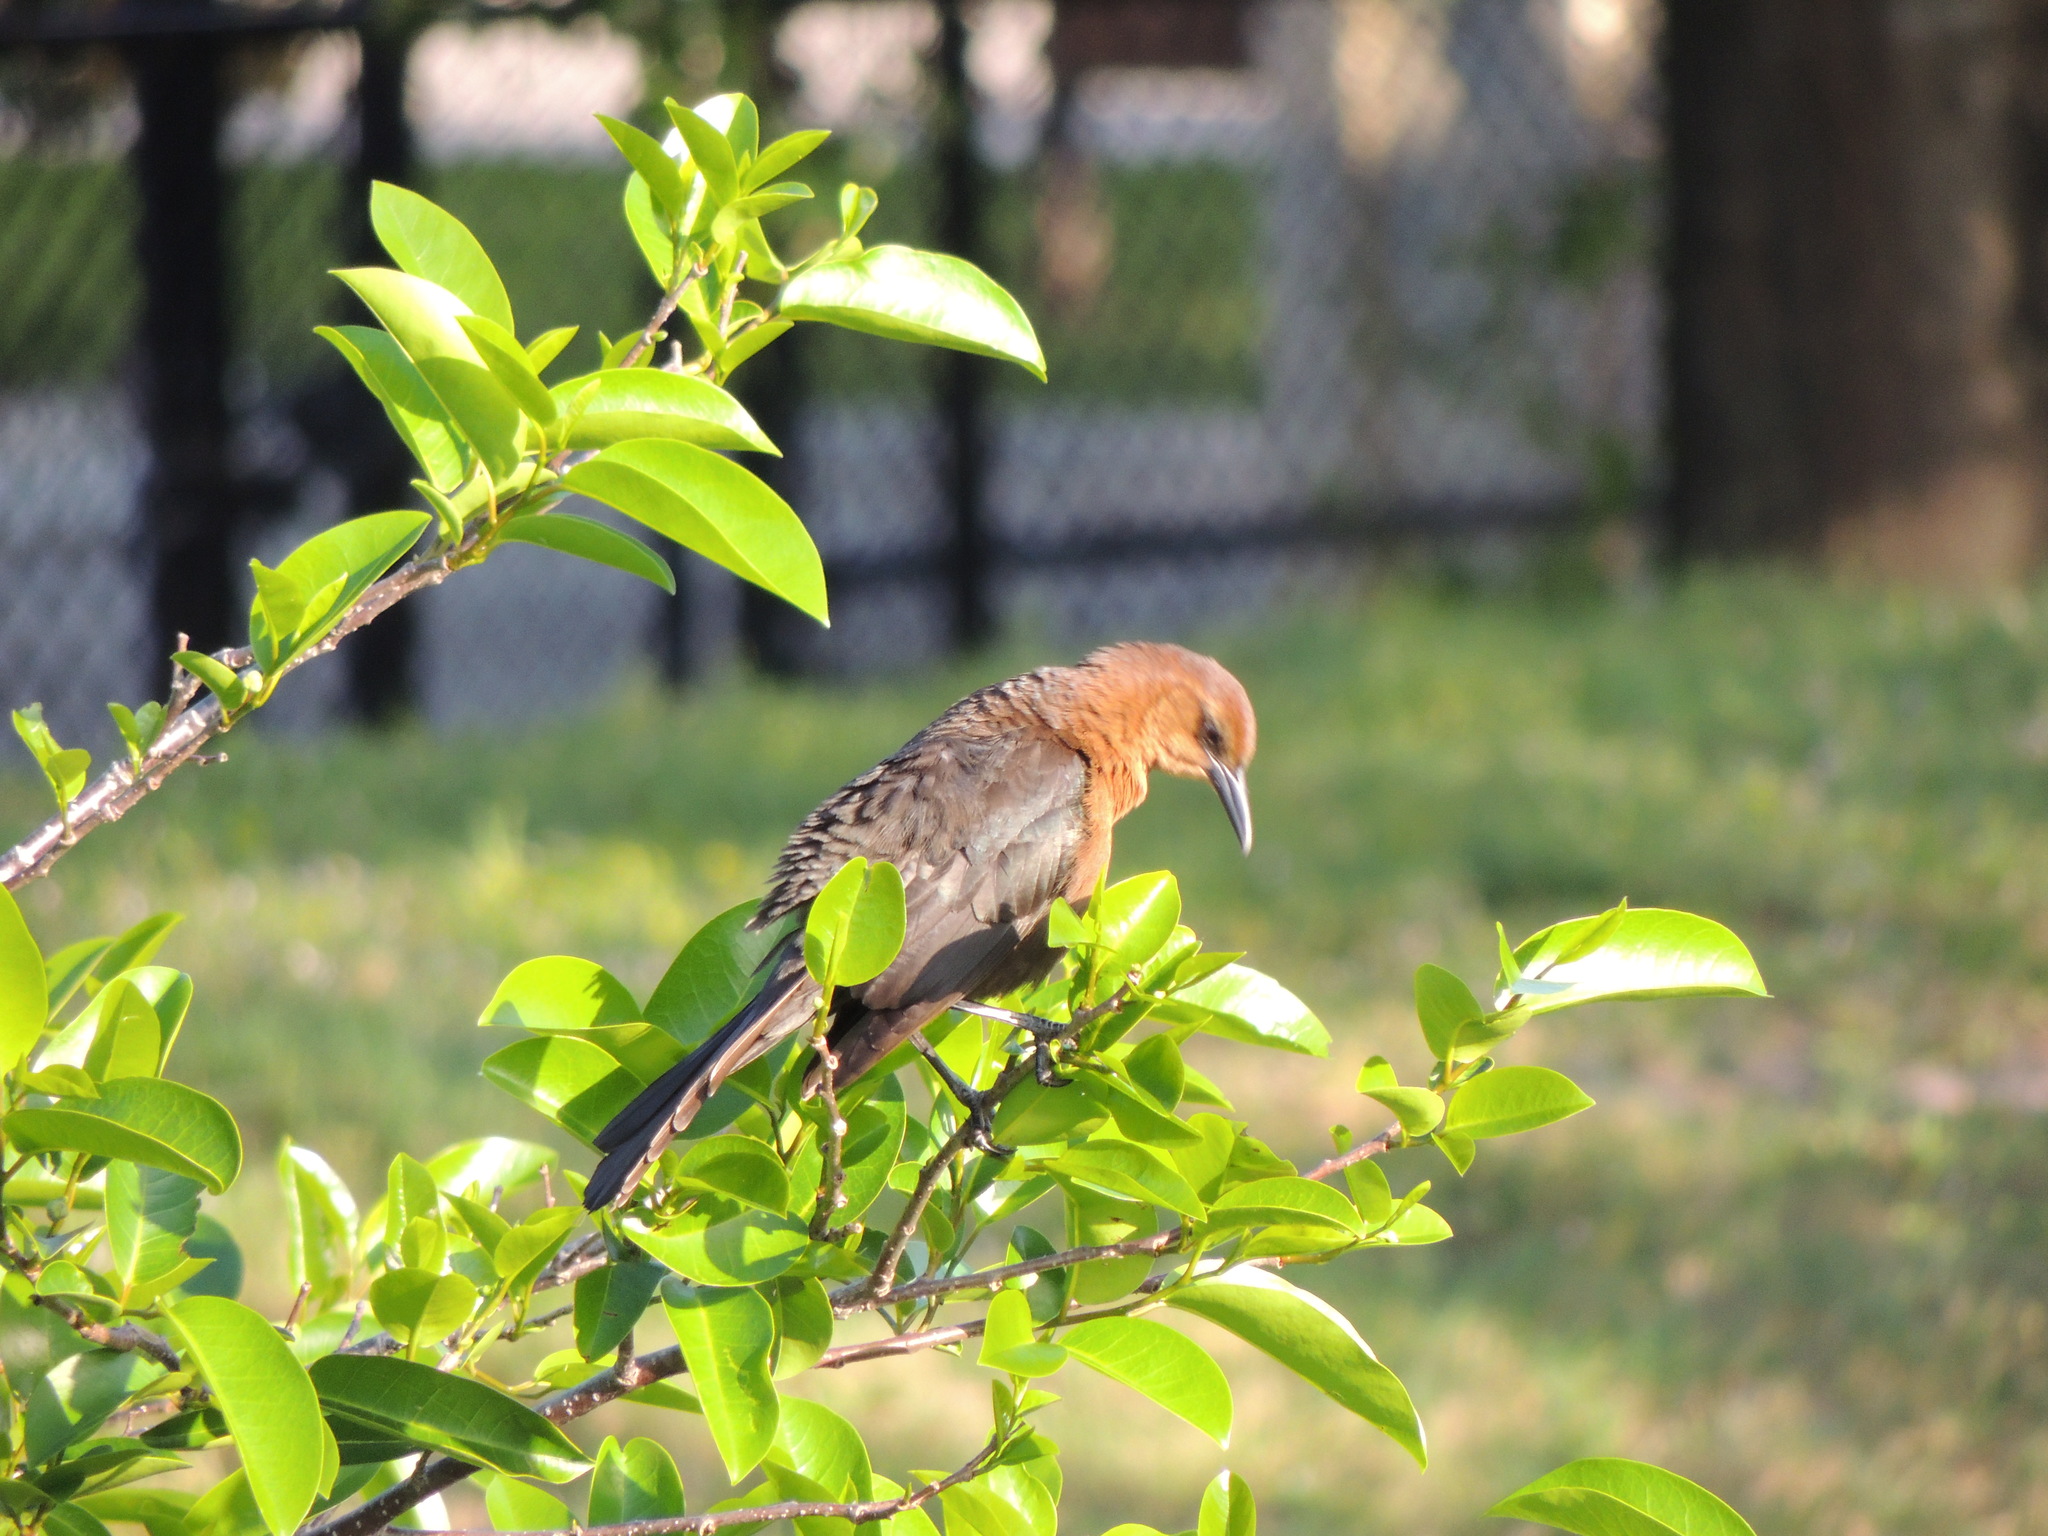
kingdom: Animalia
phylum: Chordata
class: Aves
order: Passeriformes
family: Icteridae
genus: Quiscalus
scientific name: Quiscalus major
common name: Boat-tailed grackle
